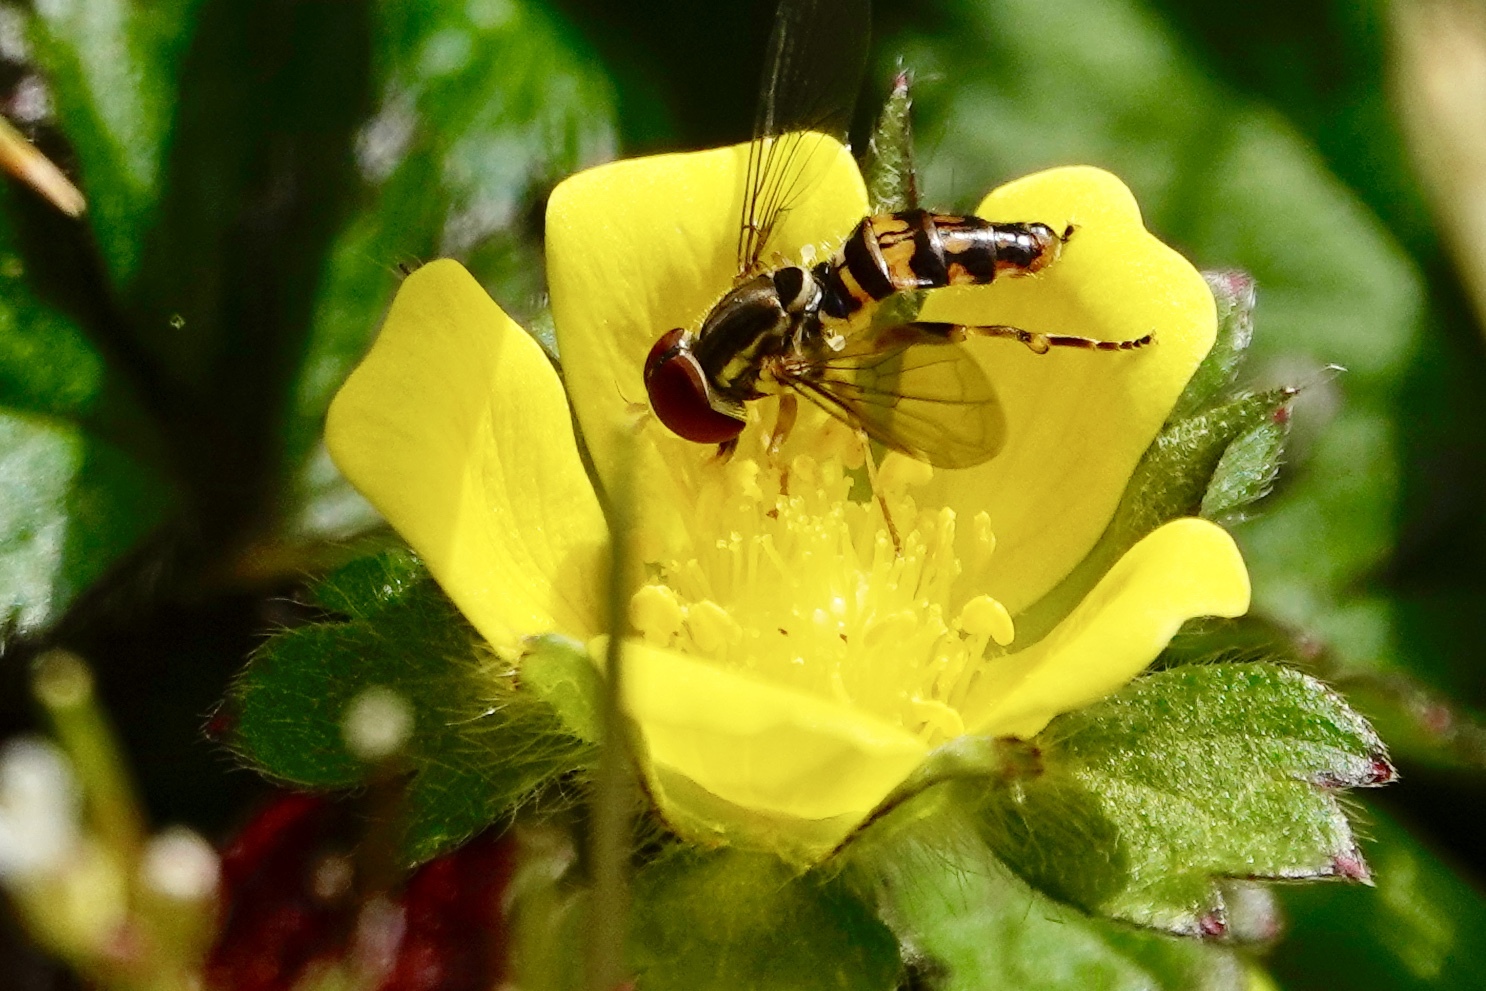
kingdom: Animalia
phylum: Arthropoda
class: Insecta
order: Diptera
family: Syrphidae
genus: Toxomerus
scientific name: Toxomerus geminatus
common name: Eastern calligrapher
